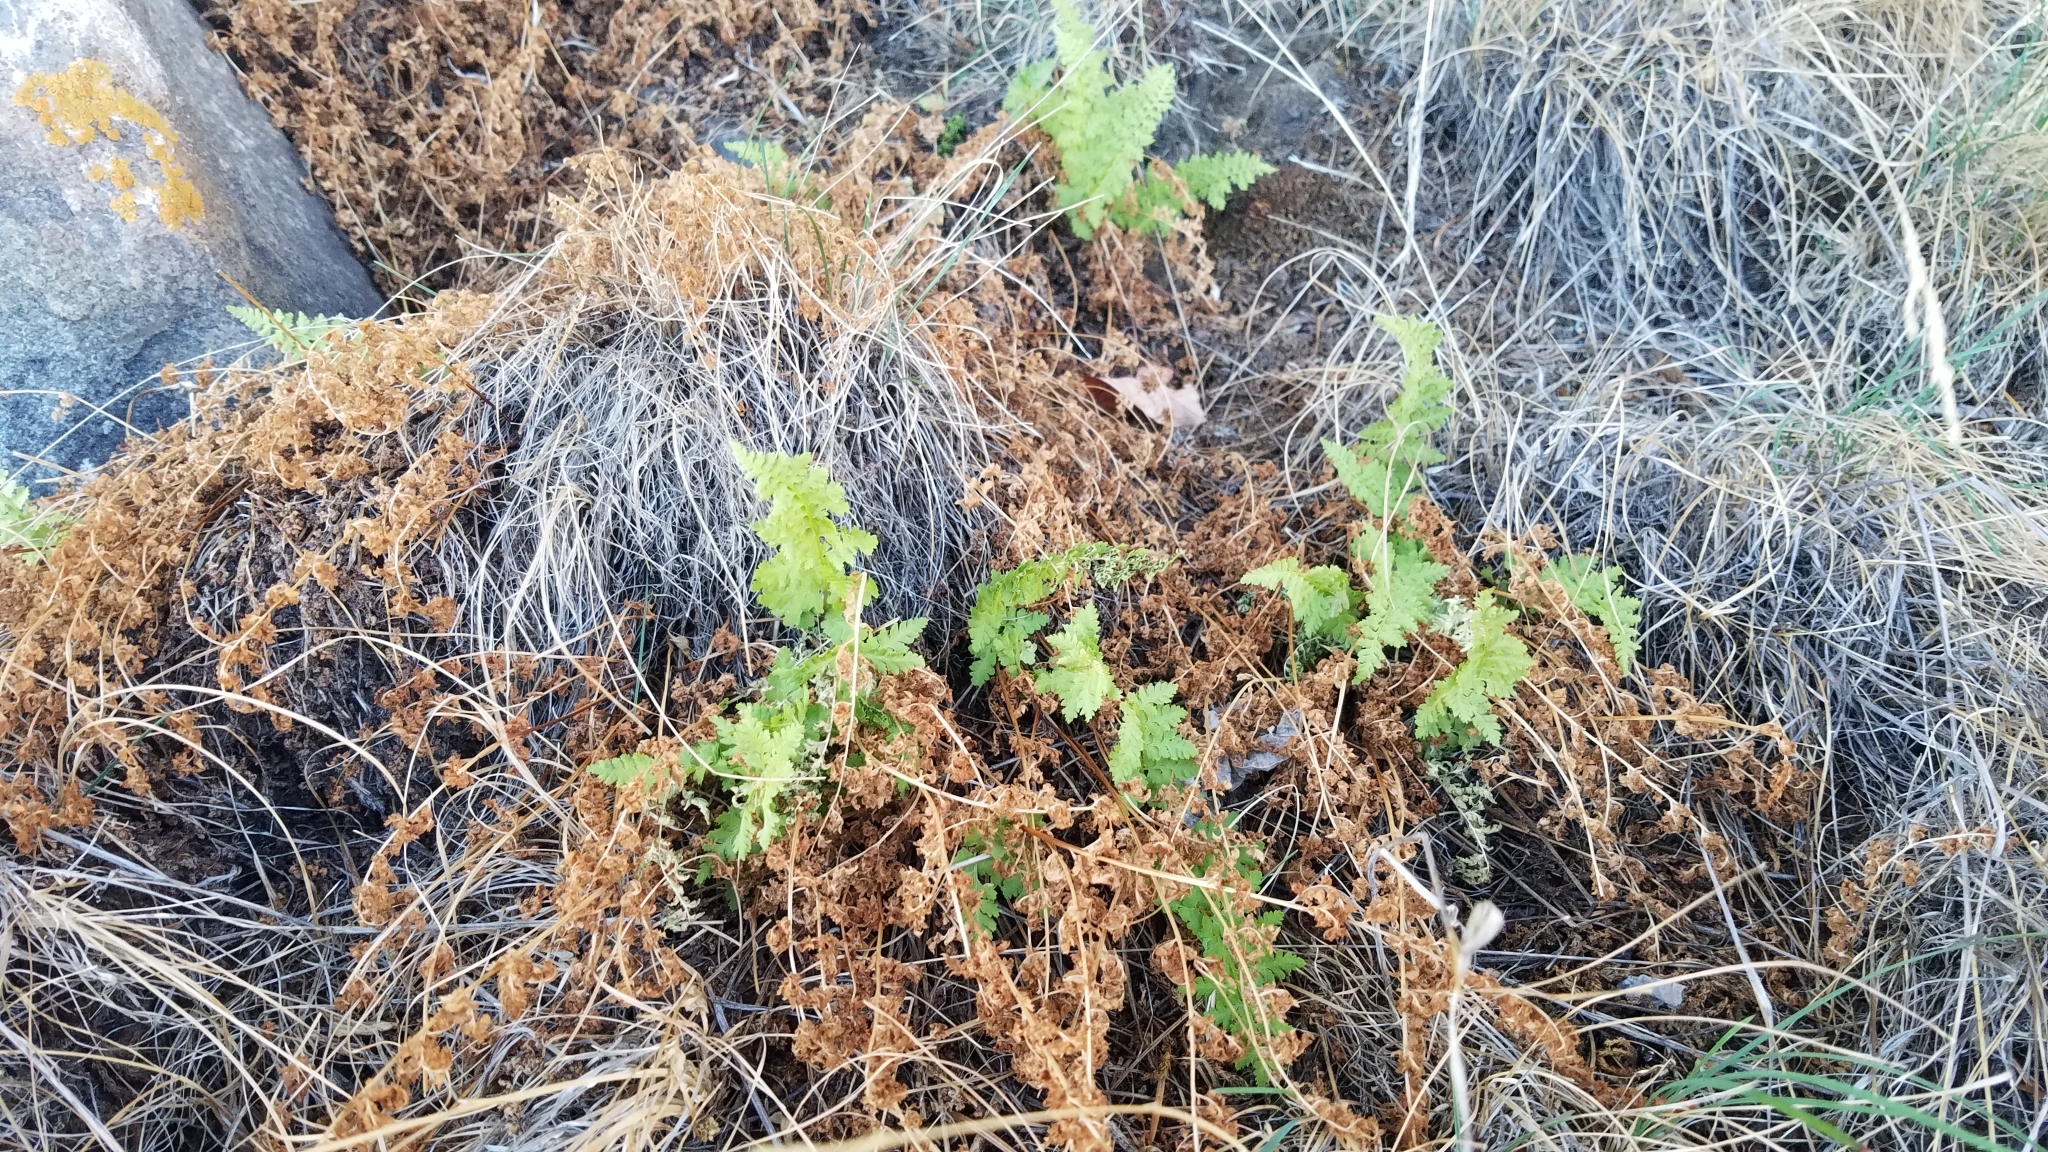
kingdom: Plantae
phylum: Tracheophyta
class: Polypodiopsida
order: Polypodiales
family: Cystopteridaceae
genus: Cystopteris
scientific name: Cystopteris fragilis
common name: Brittle bladder fern
